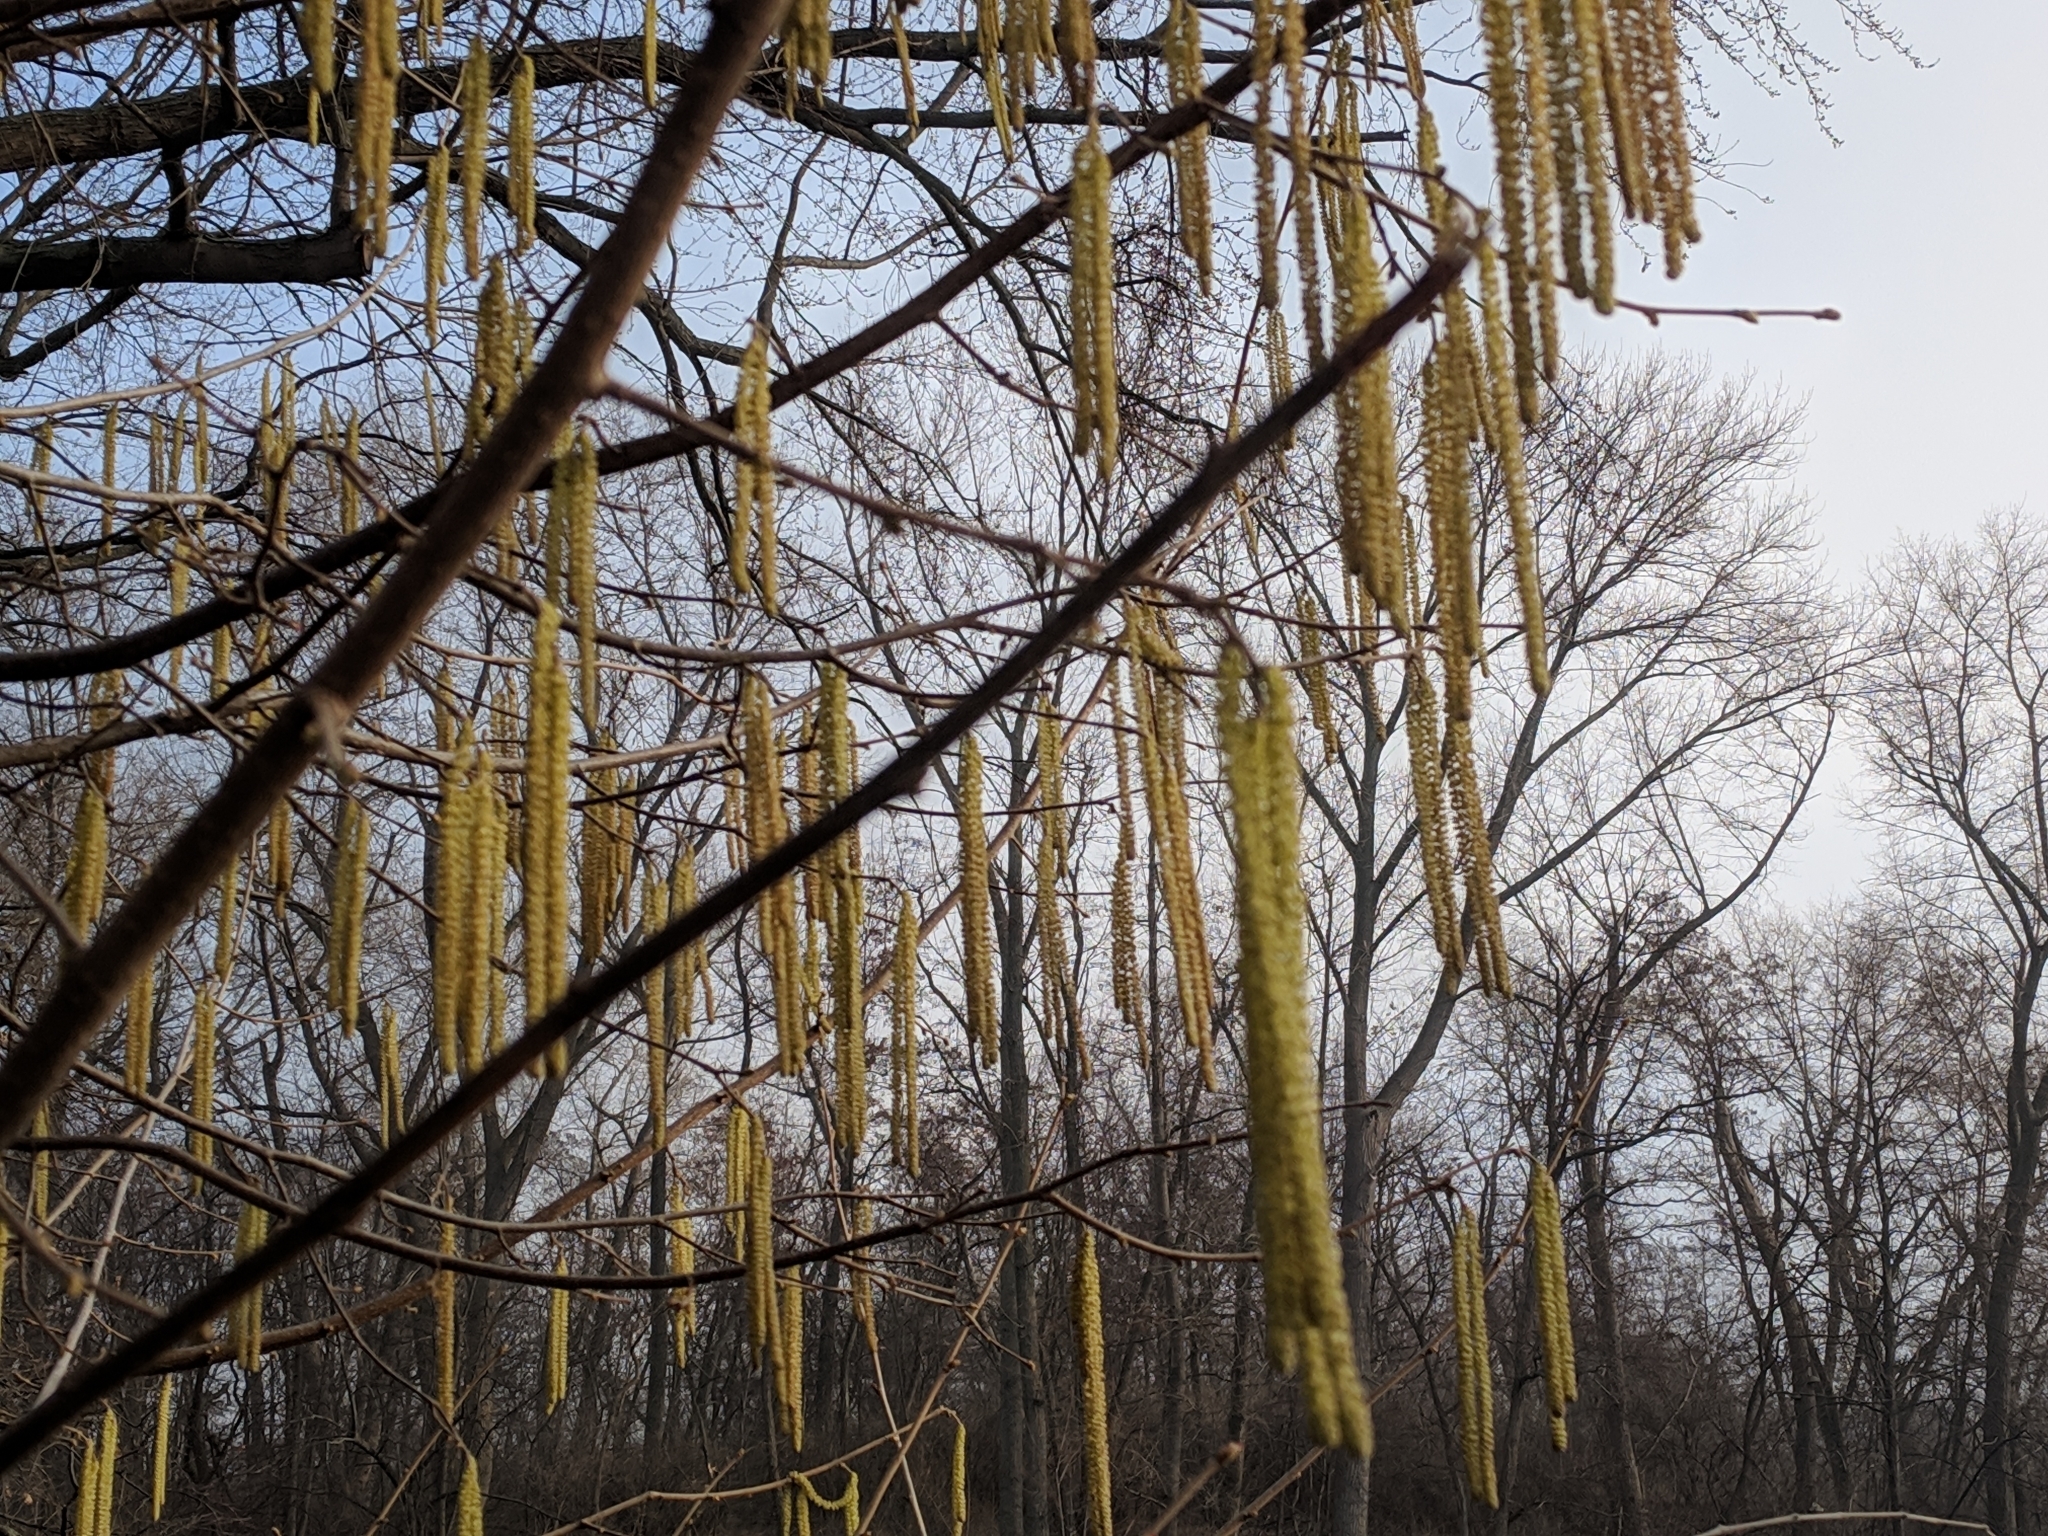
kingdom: Plantae
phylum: Tracheophyta
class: Magnoliopsida
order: Fagales
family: Betulaceae
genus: Corylus
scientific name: Corylus avellana
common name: European hazel
